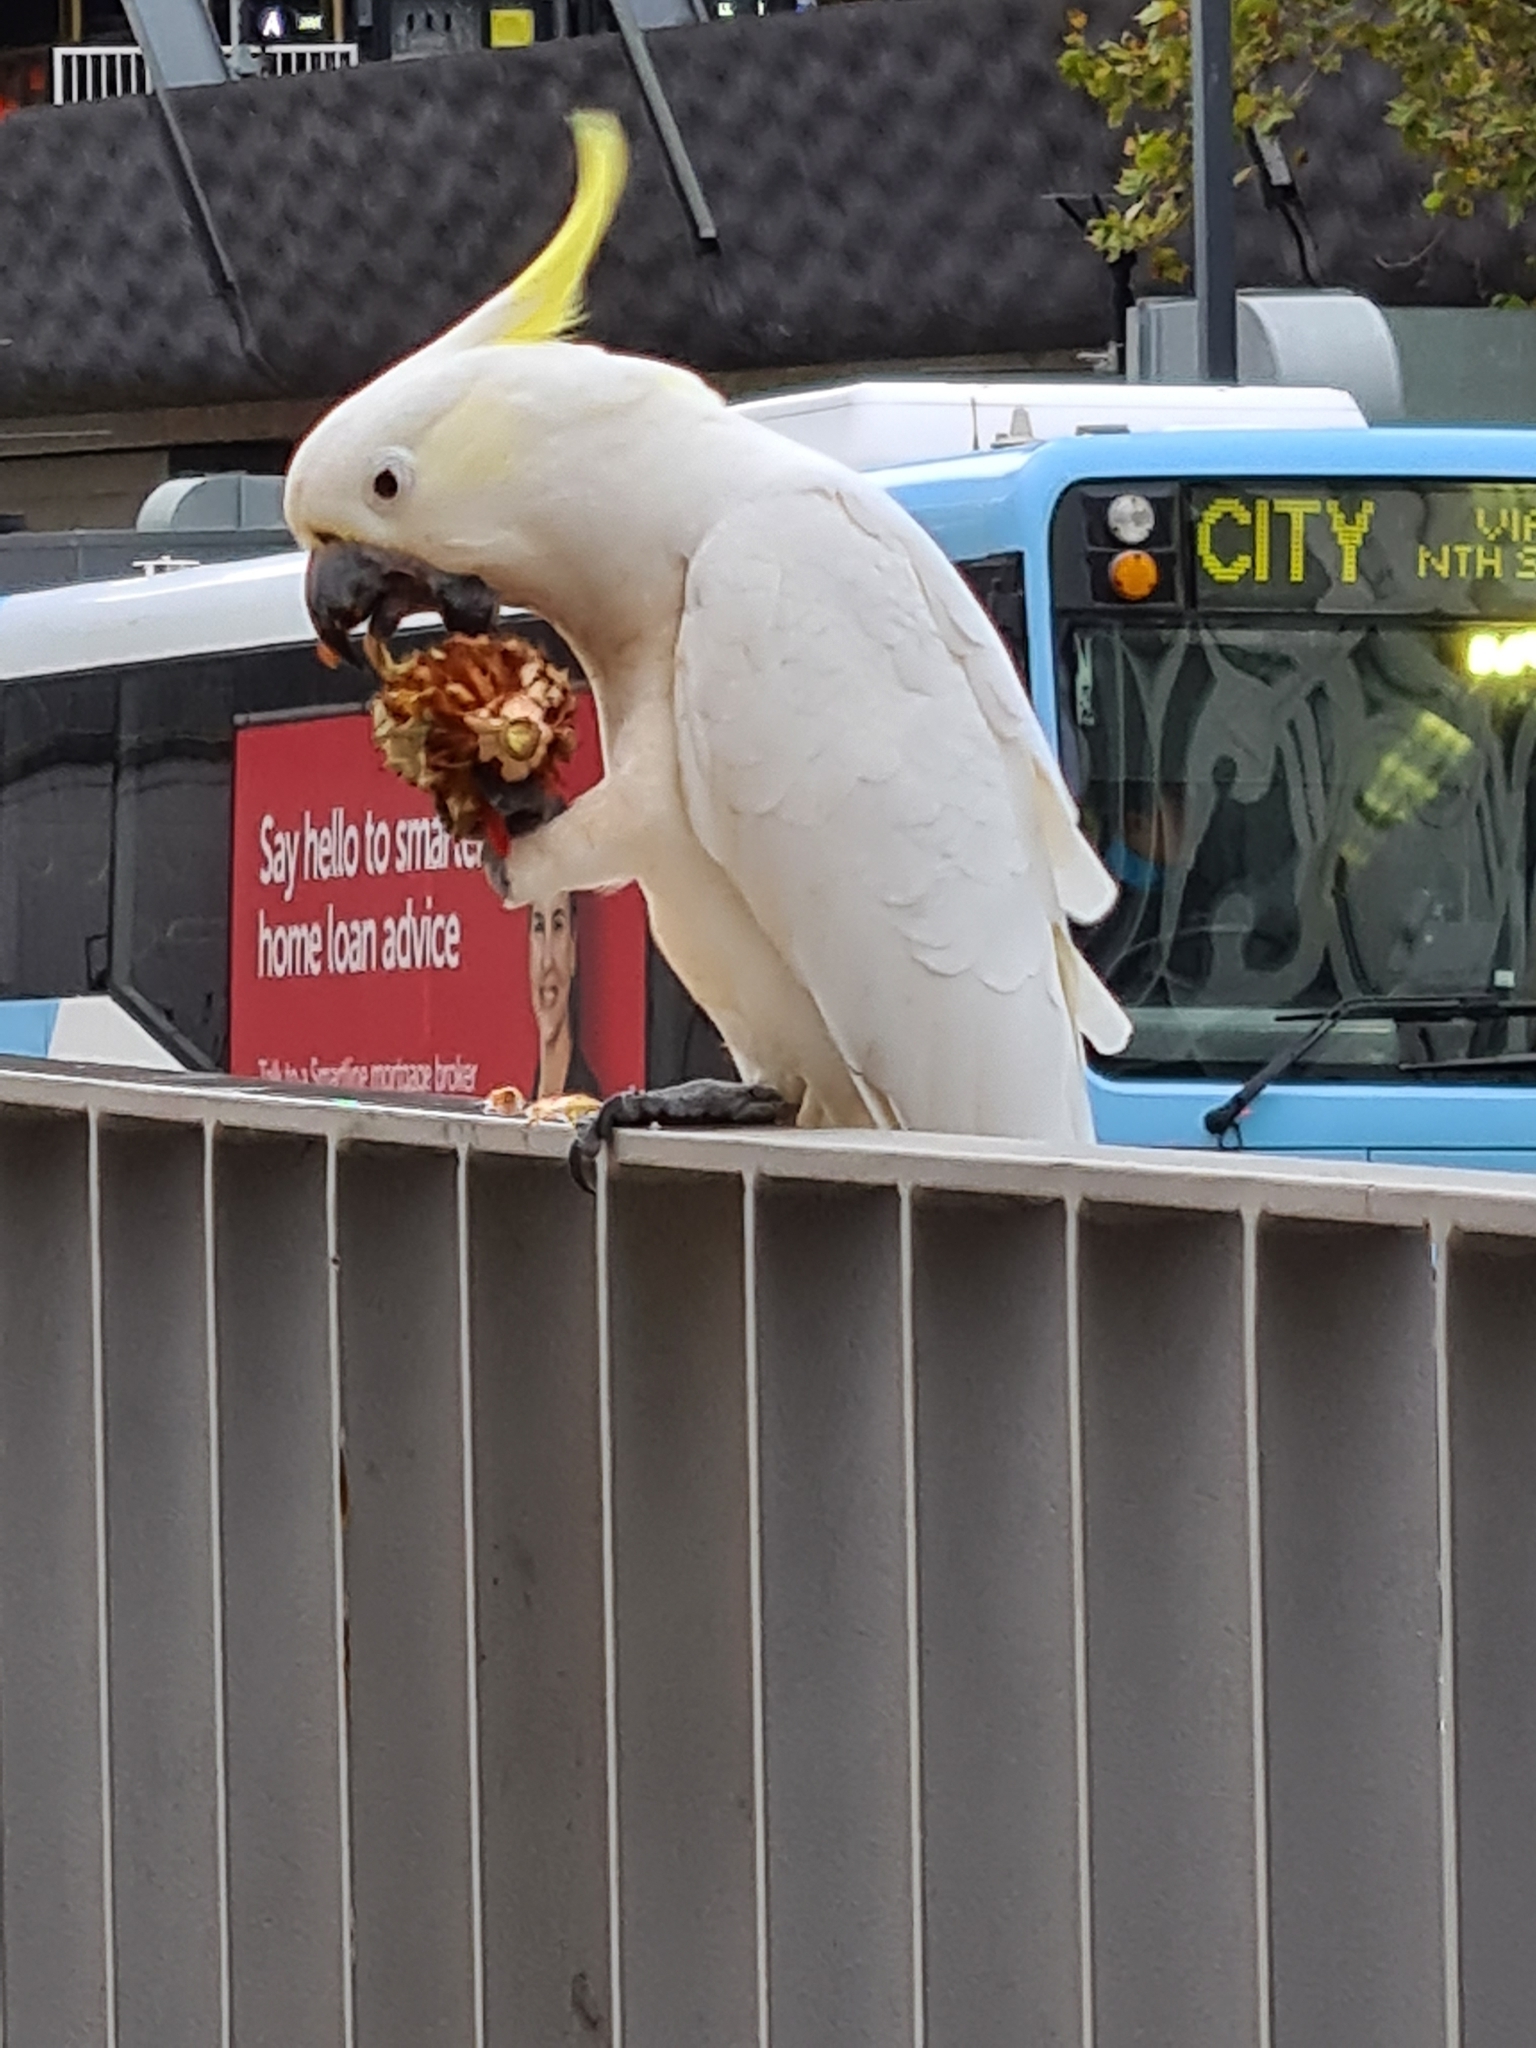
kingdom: Animalia
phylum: Chordata
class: Aves
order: Psittaciformes
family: Psittacidae
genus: Cacatua
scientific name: Cacatua galerita
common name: Sulphur-crested cockatoo
